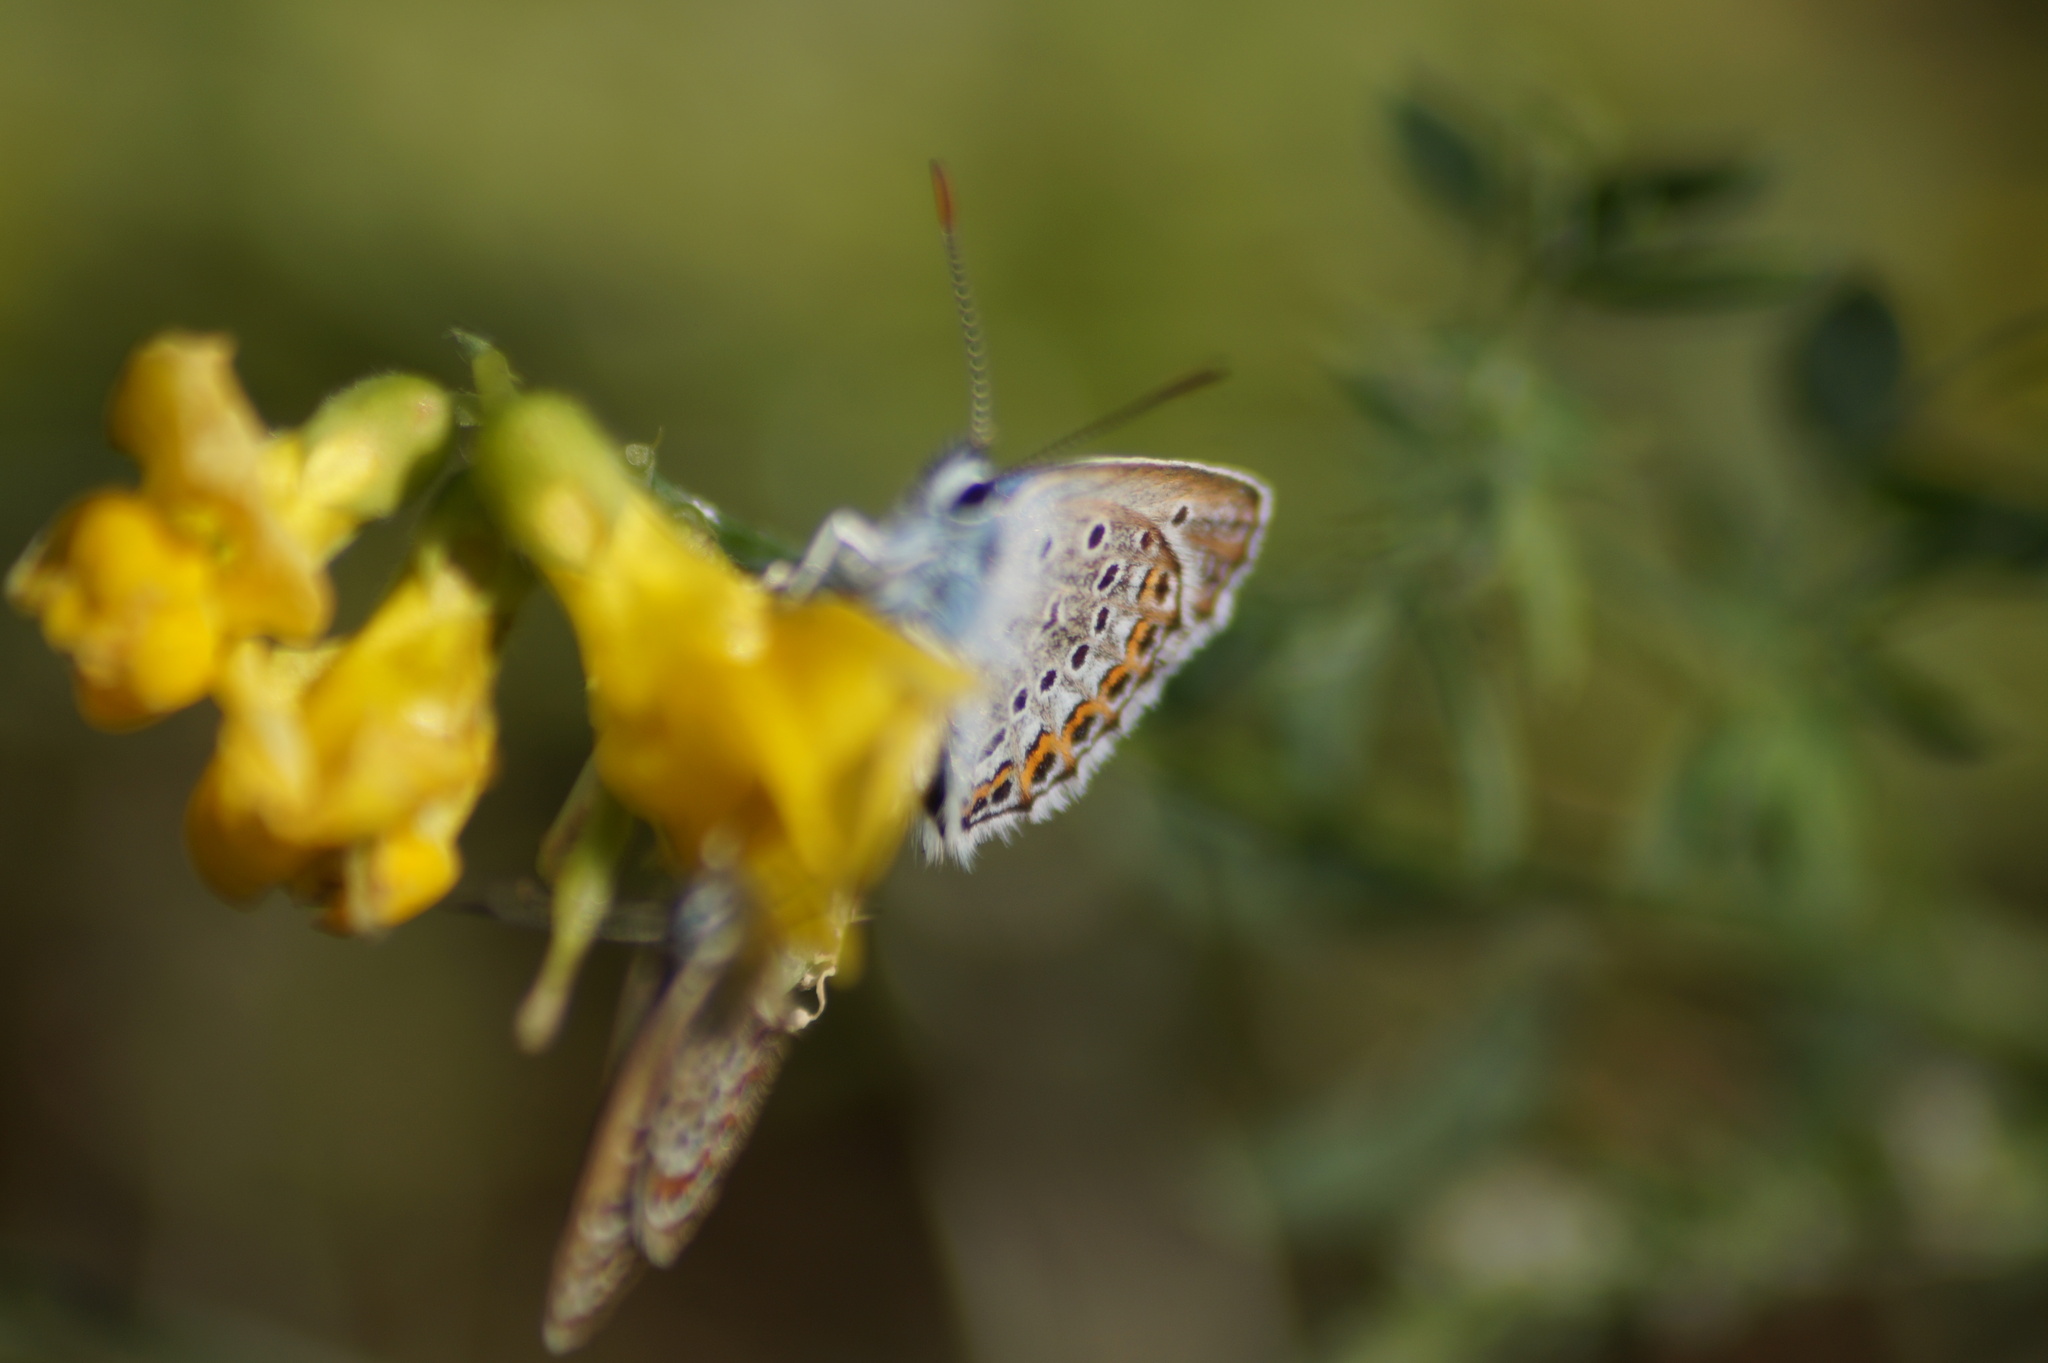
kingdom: Animalia
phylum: Arthropoda
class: Insecta
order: Lepidoptera
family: Lycaenidae
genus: Plebejus
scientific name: Plebejus argus
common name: Silver-studded blue
